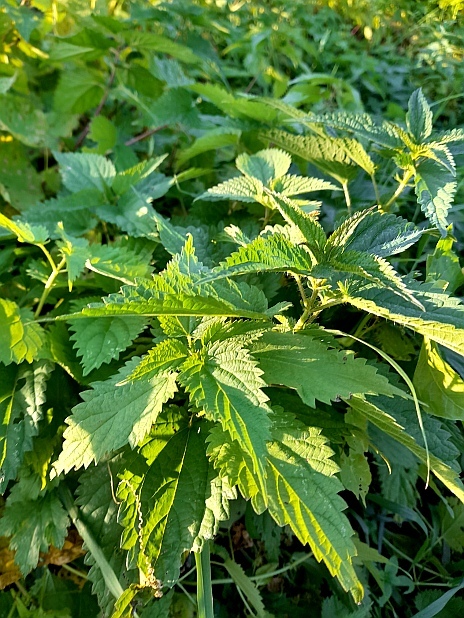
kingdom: Plantae
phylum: Tracheophyta
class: Magnoliopsida
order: Rosales
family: Urticaceae
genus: Urtica
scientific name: Urtica dioica
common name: Common nettle
